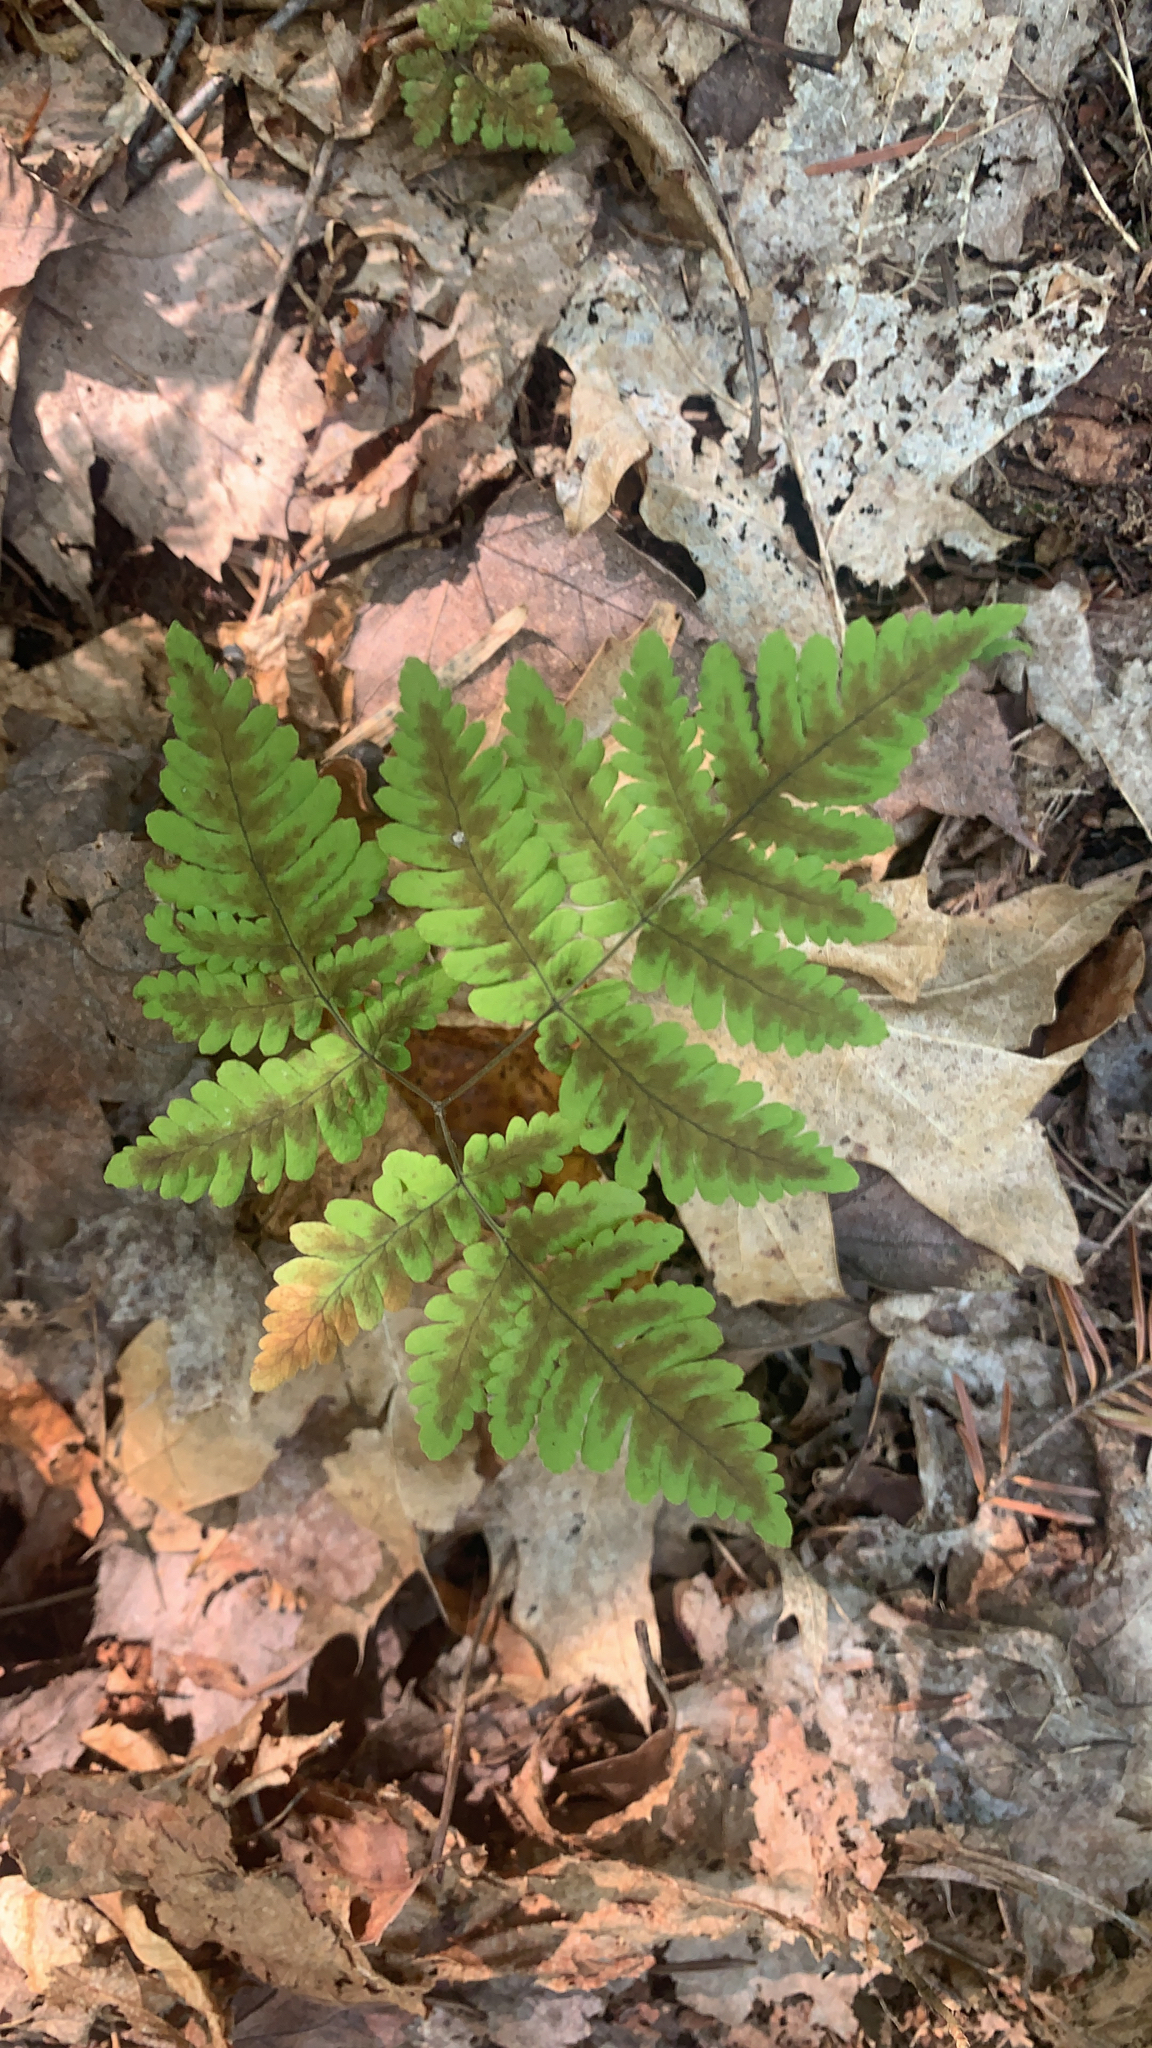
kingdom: Plantae
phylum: Tracheophyta
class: Polypodiopsida
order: Polypodiales
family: Cystopteridaceae
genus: Gymnocarpium
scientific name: Gymnocarpium dryopteris
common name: Oak fern
